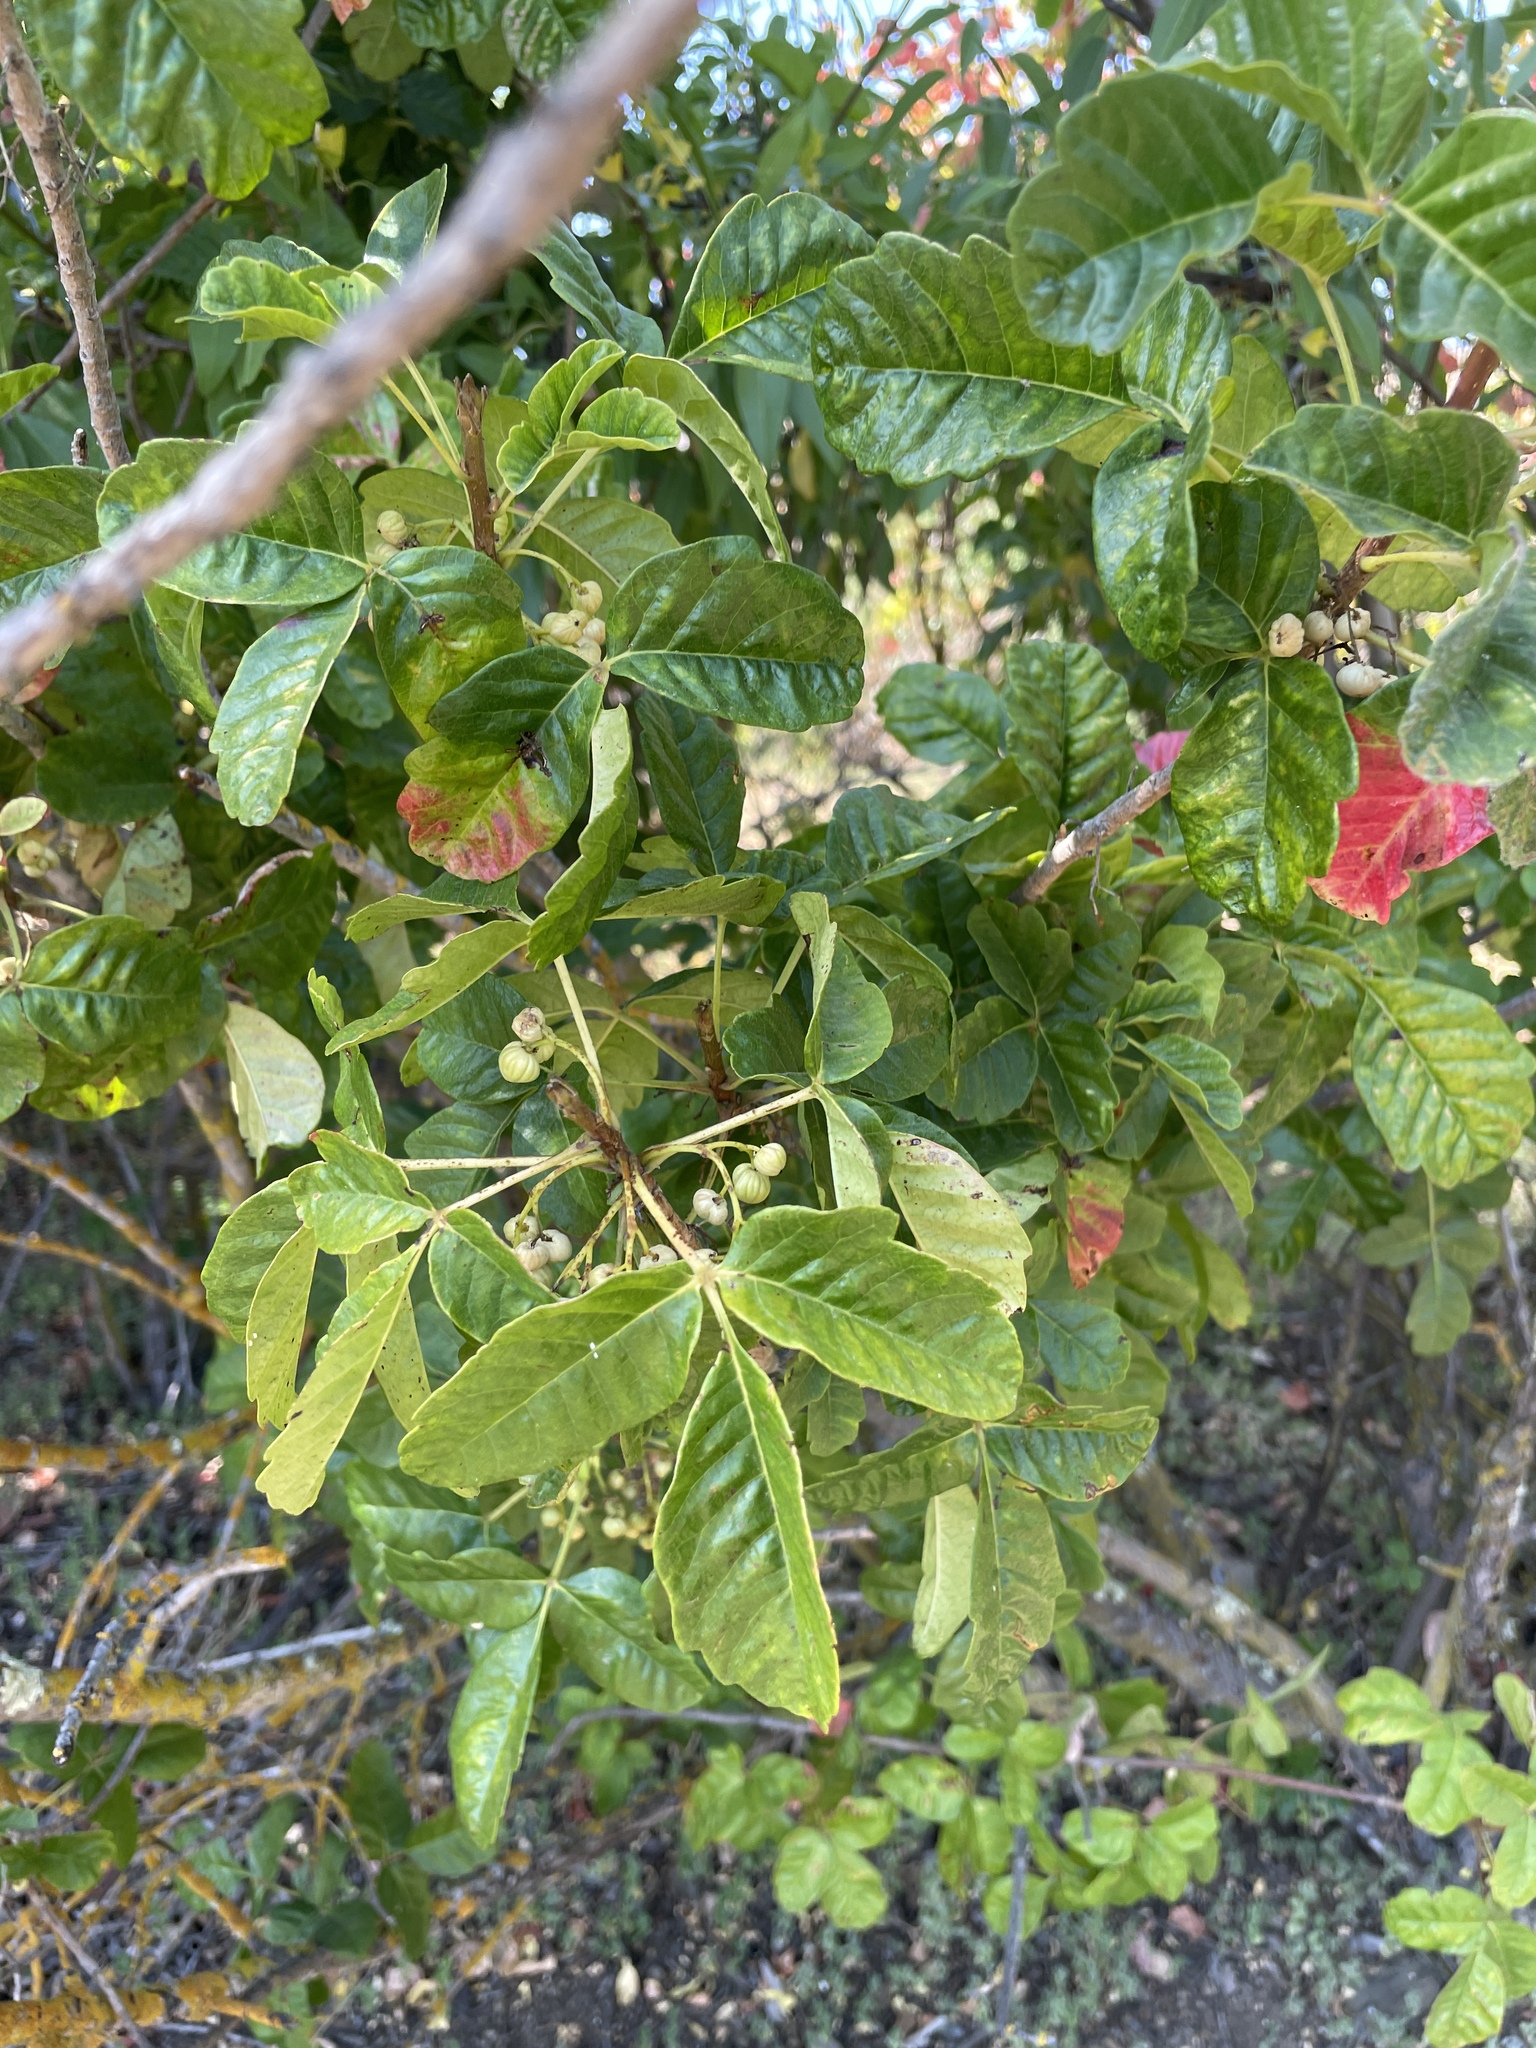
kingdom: Plantae
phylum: Tracheophyta
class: Magnoliopsida
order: Sapindales
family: Anacardiaceae
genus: Toxicodendron
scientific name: Toxicodendron diversilobum
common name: Pacific poison-oak
